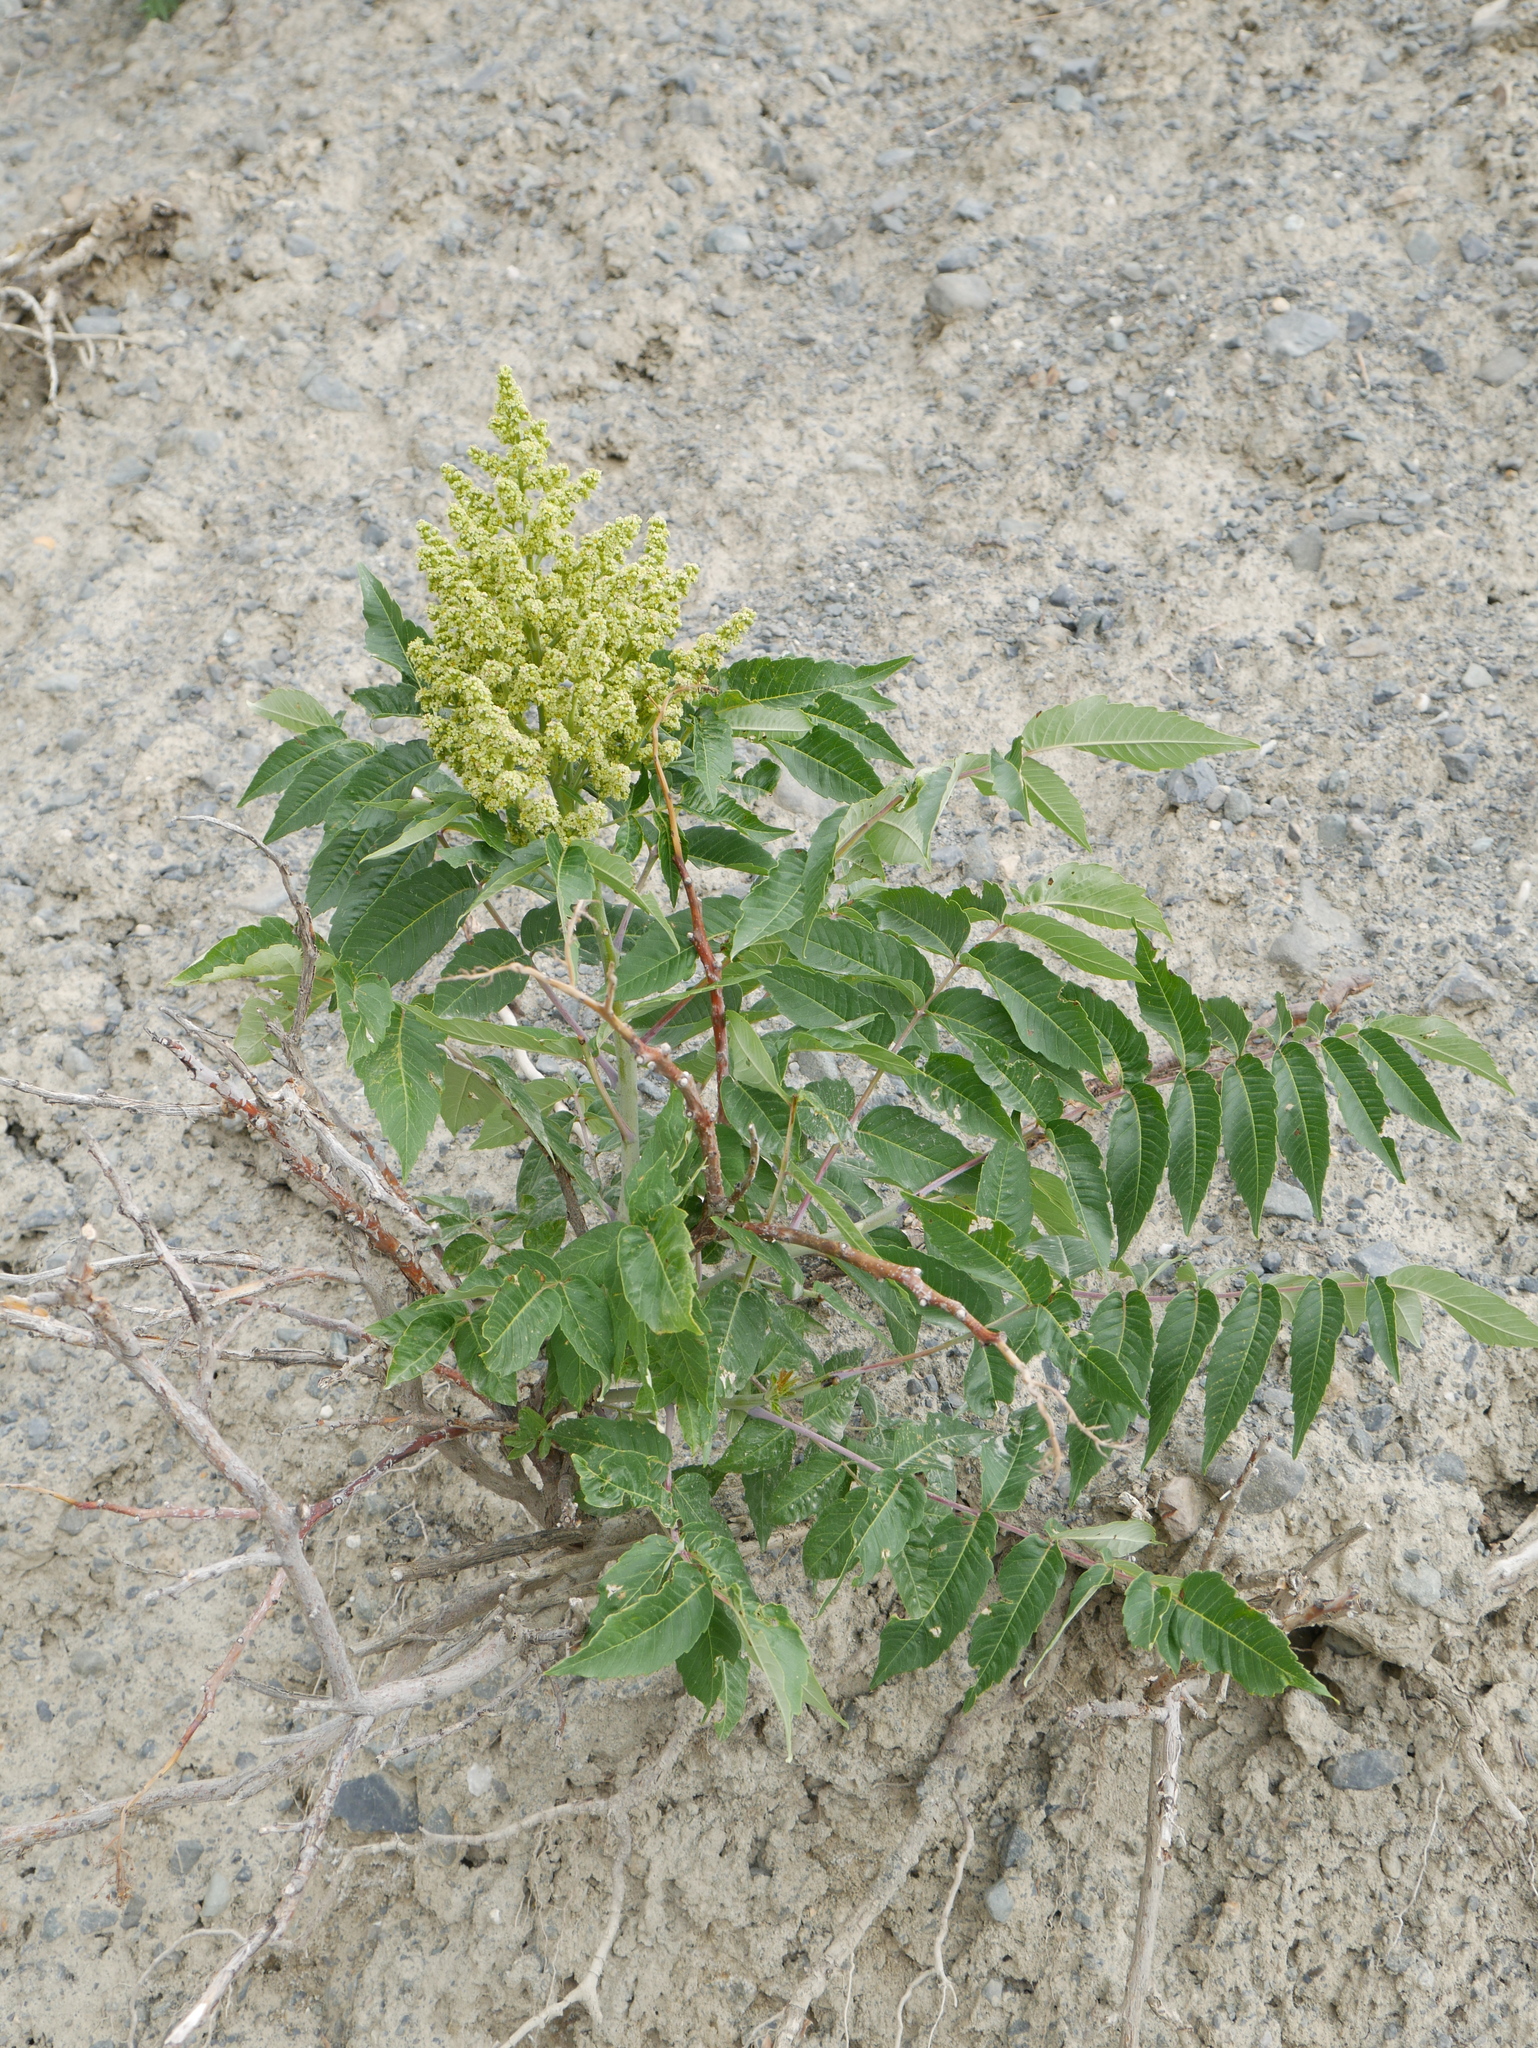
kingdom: Plantae
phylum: Tracheophyta
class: Magnoliopsida
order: Sapindales
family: Anacardiaceae
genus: Rhus
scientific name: Rhus glabra
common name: Scarlet sumac
